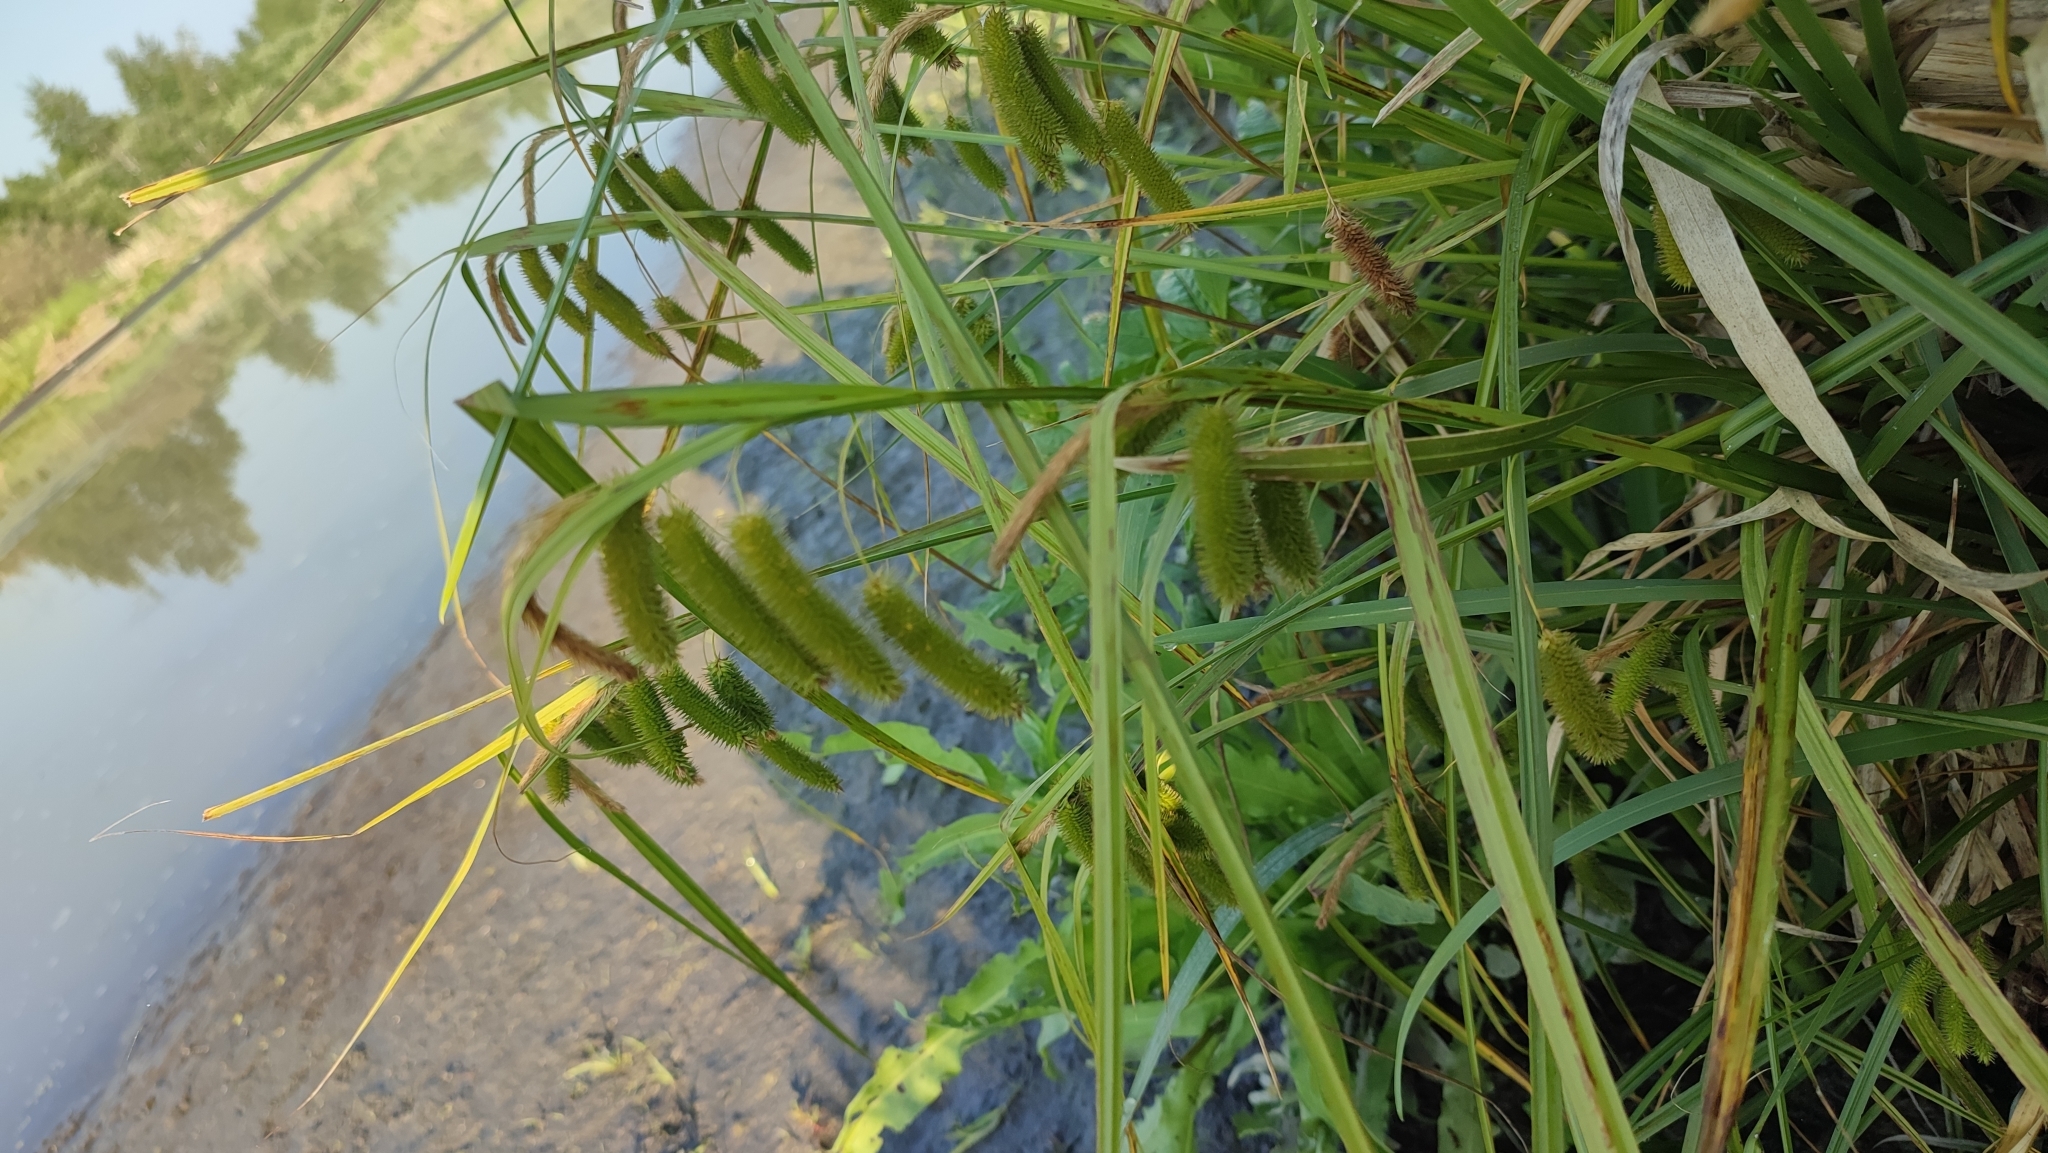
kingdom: Plantae
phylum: Tracheophyta
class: Liliopsida
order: Poales
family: Cyperaceae
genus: Carex
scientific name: Carex pseudocyperus
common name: Cyperus sedge
